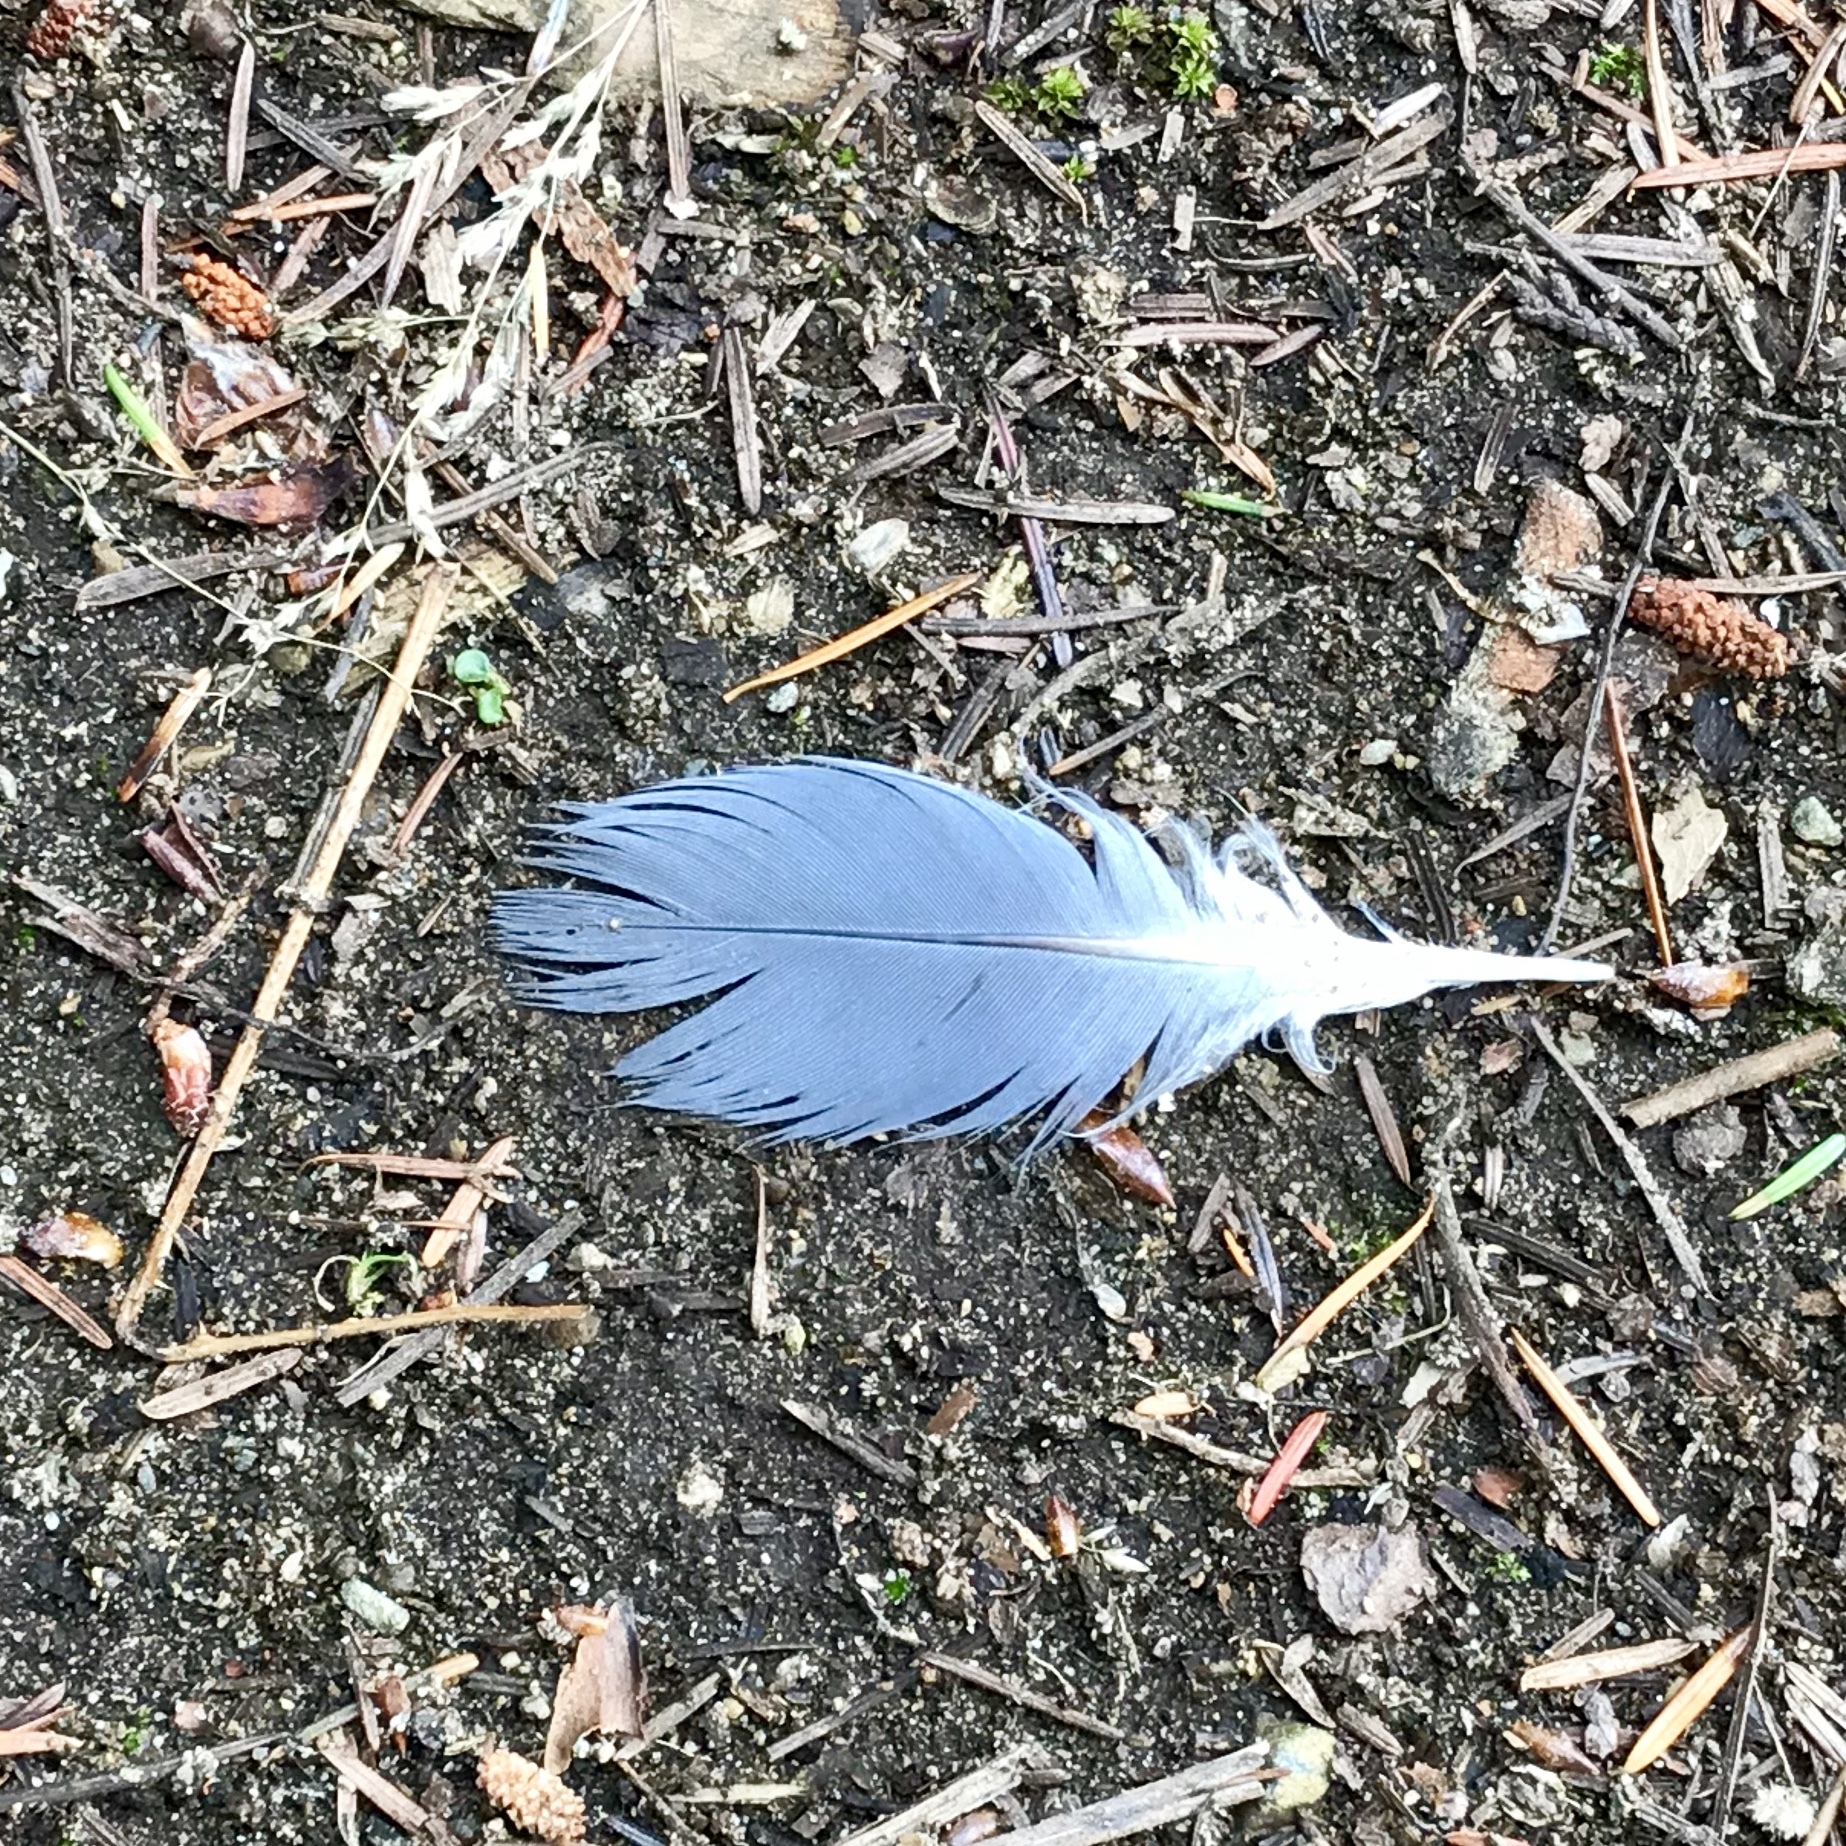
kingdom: Animalia
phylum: Chordata
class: Aves
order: Pelecaniformes
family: Ardeidae
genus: Ardea
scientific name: Ardea herodias
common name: Great blue heron
